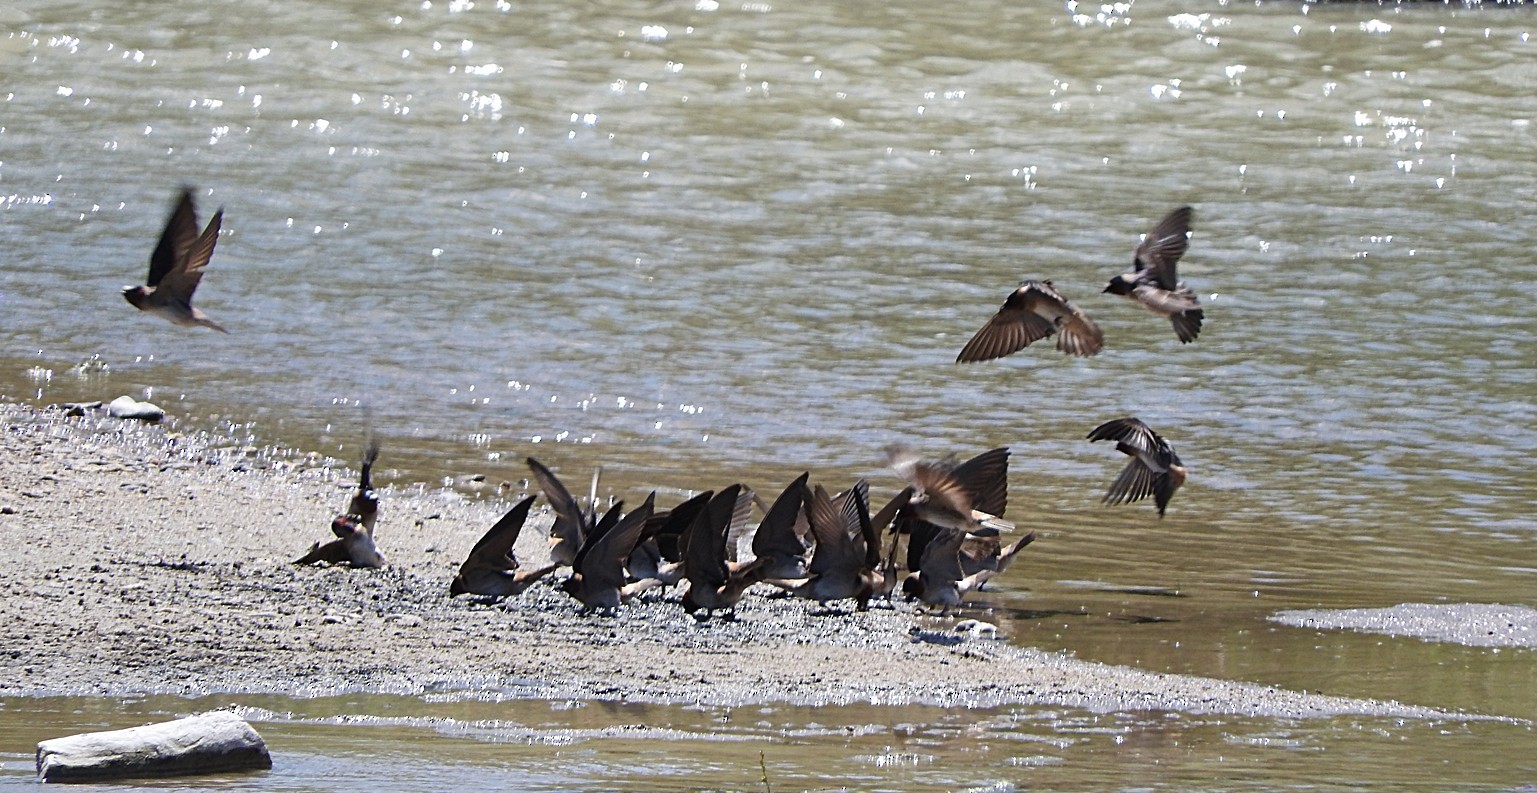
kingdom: Animalia
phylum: Chordata
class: Aves
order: Passeriformes
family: Hirundinidae
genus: Petrochelidon
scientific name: Petrochelidon pyrrhonota
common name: American cliff swallow
